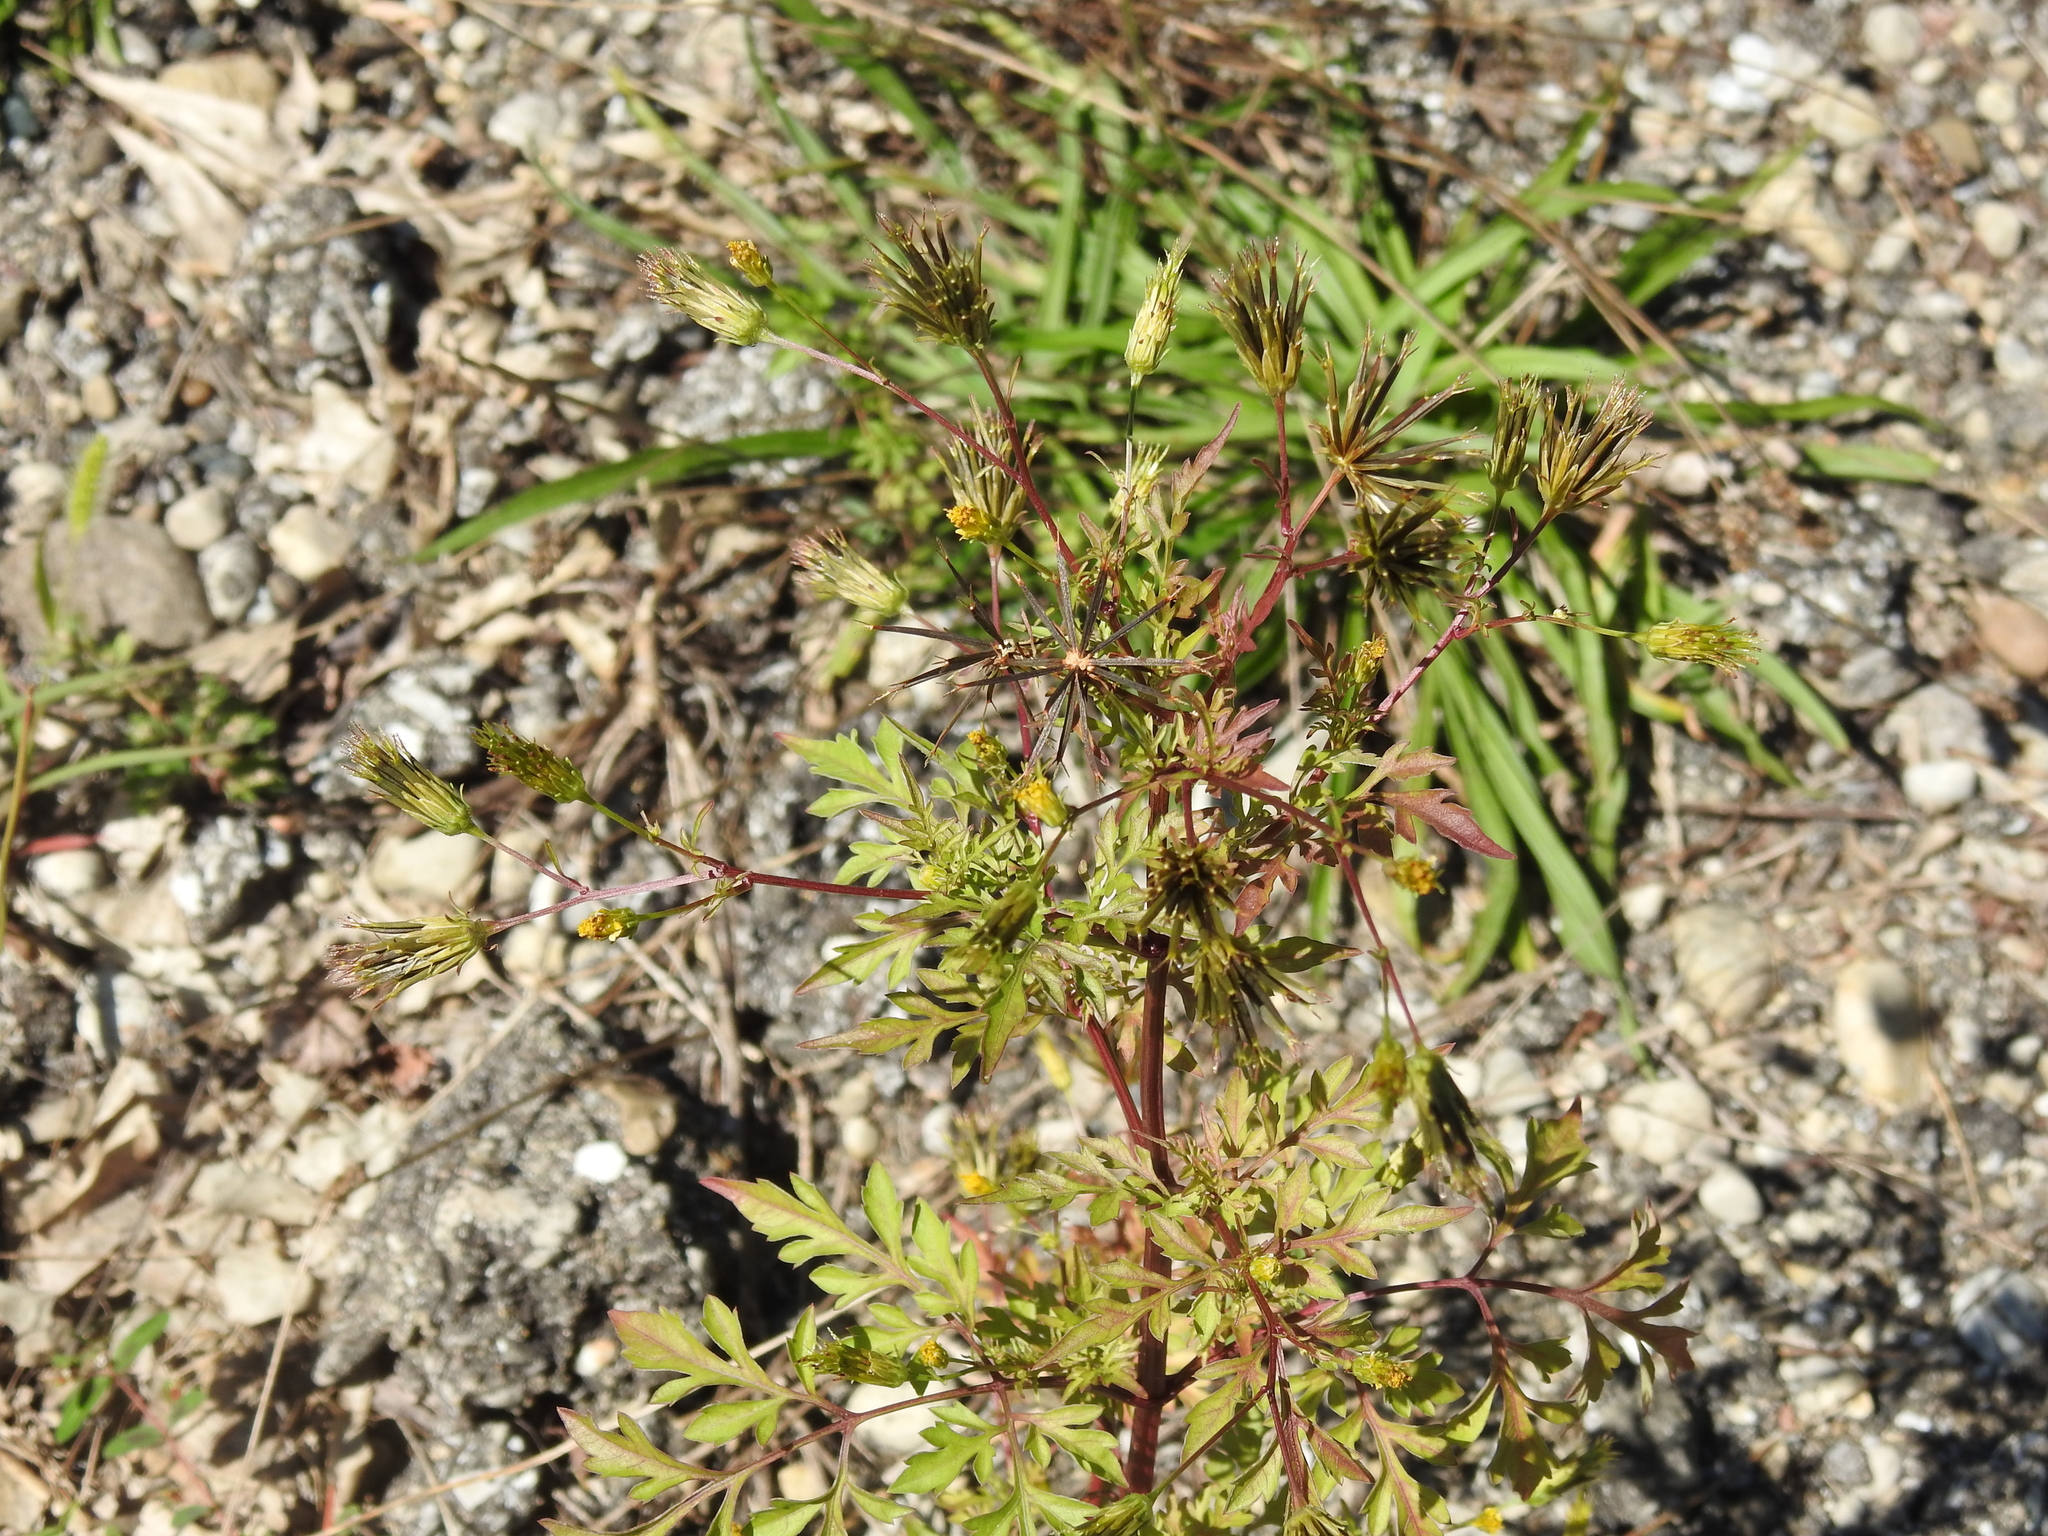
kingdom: Plantae
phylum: Tracheophyta
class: Magnoliopsida
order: Asterales
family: Asteraceae
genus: Bidens
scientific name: Bidens bipinnata
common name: Spanish-needles
